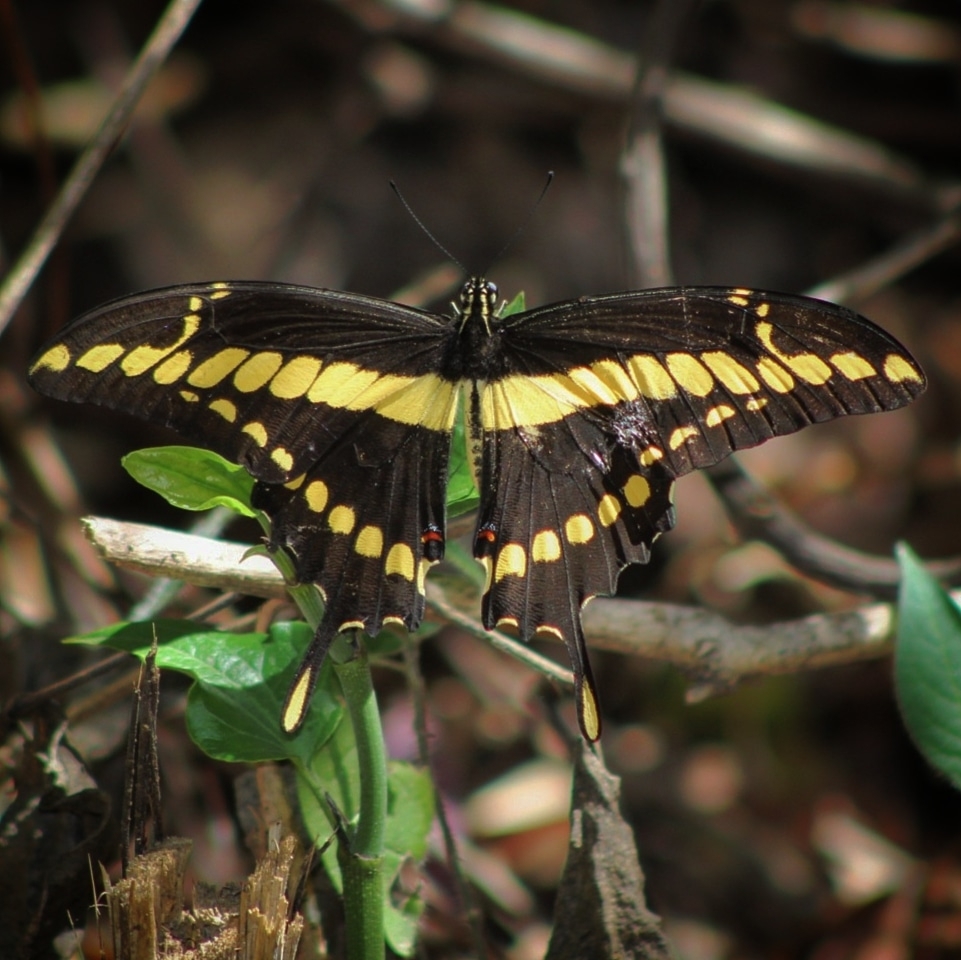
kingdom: Animalia
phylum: Arthropoda
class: Insecta
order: Lepidoptera
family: Papilionidae
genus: Papilio
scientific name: Papilio thoas
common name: King swallowtail
